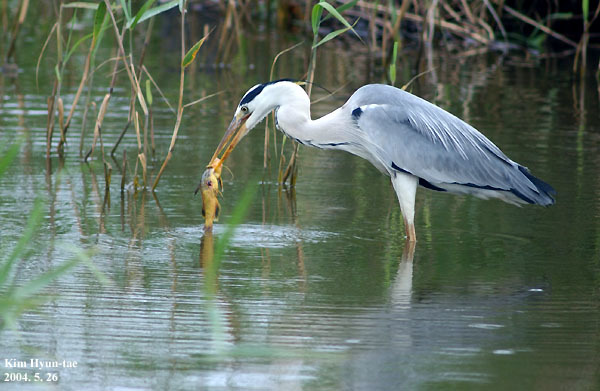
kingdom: Animalia
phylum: Chordata
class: Aves
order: Pelecaniformes
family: Ardeidae
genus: Ardea
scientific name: Ardea cinerea
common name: Grey heron
